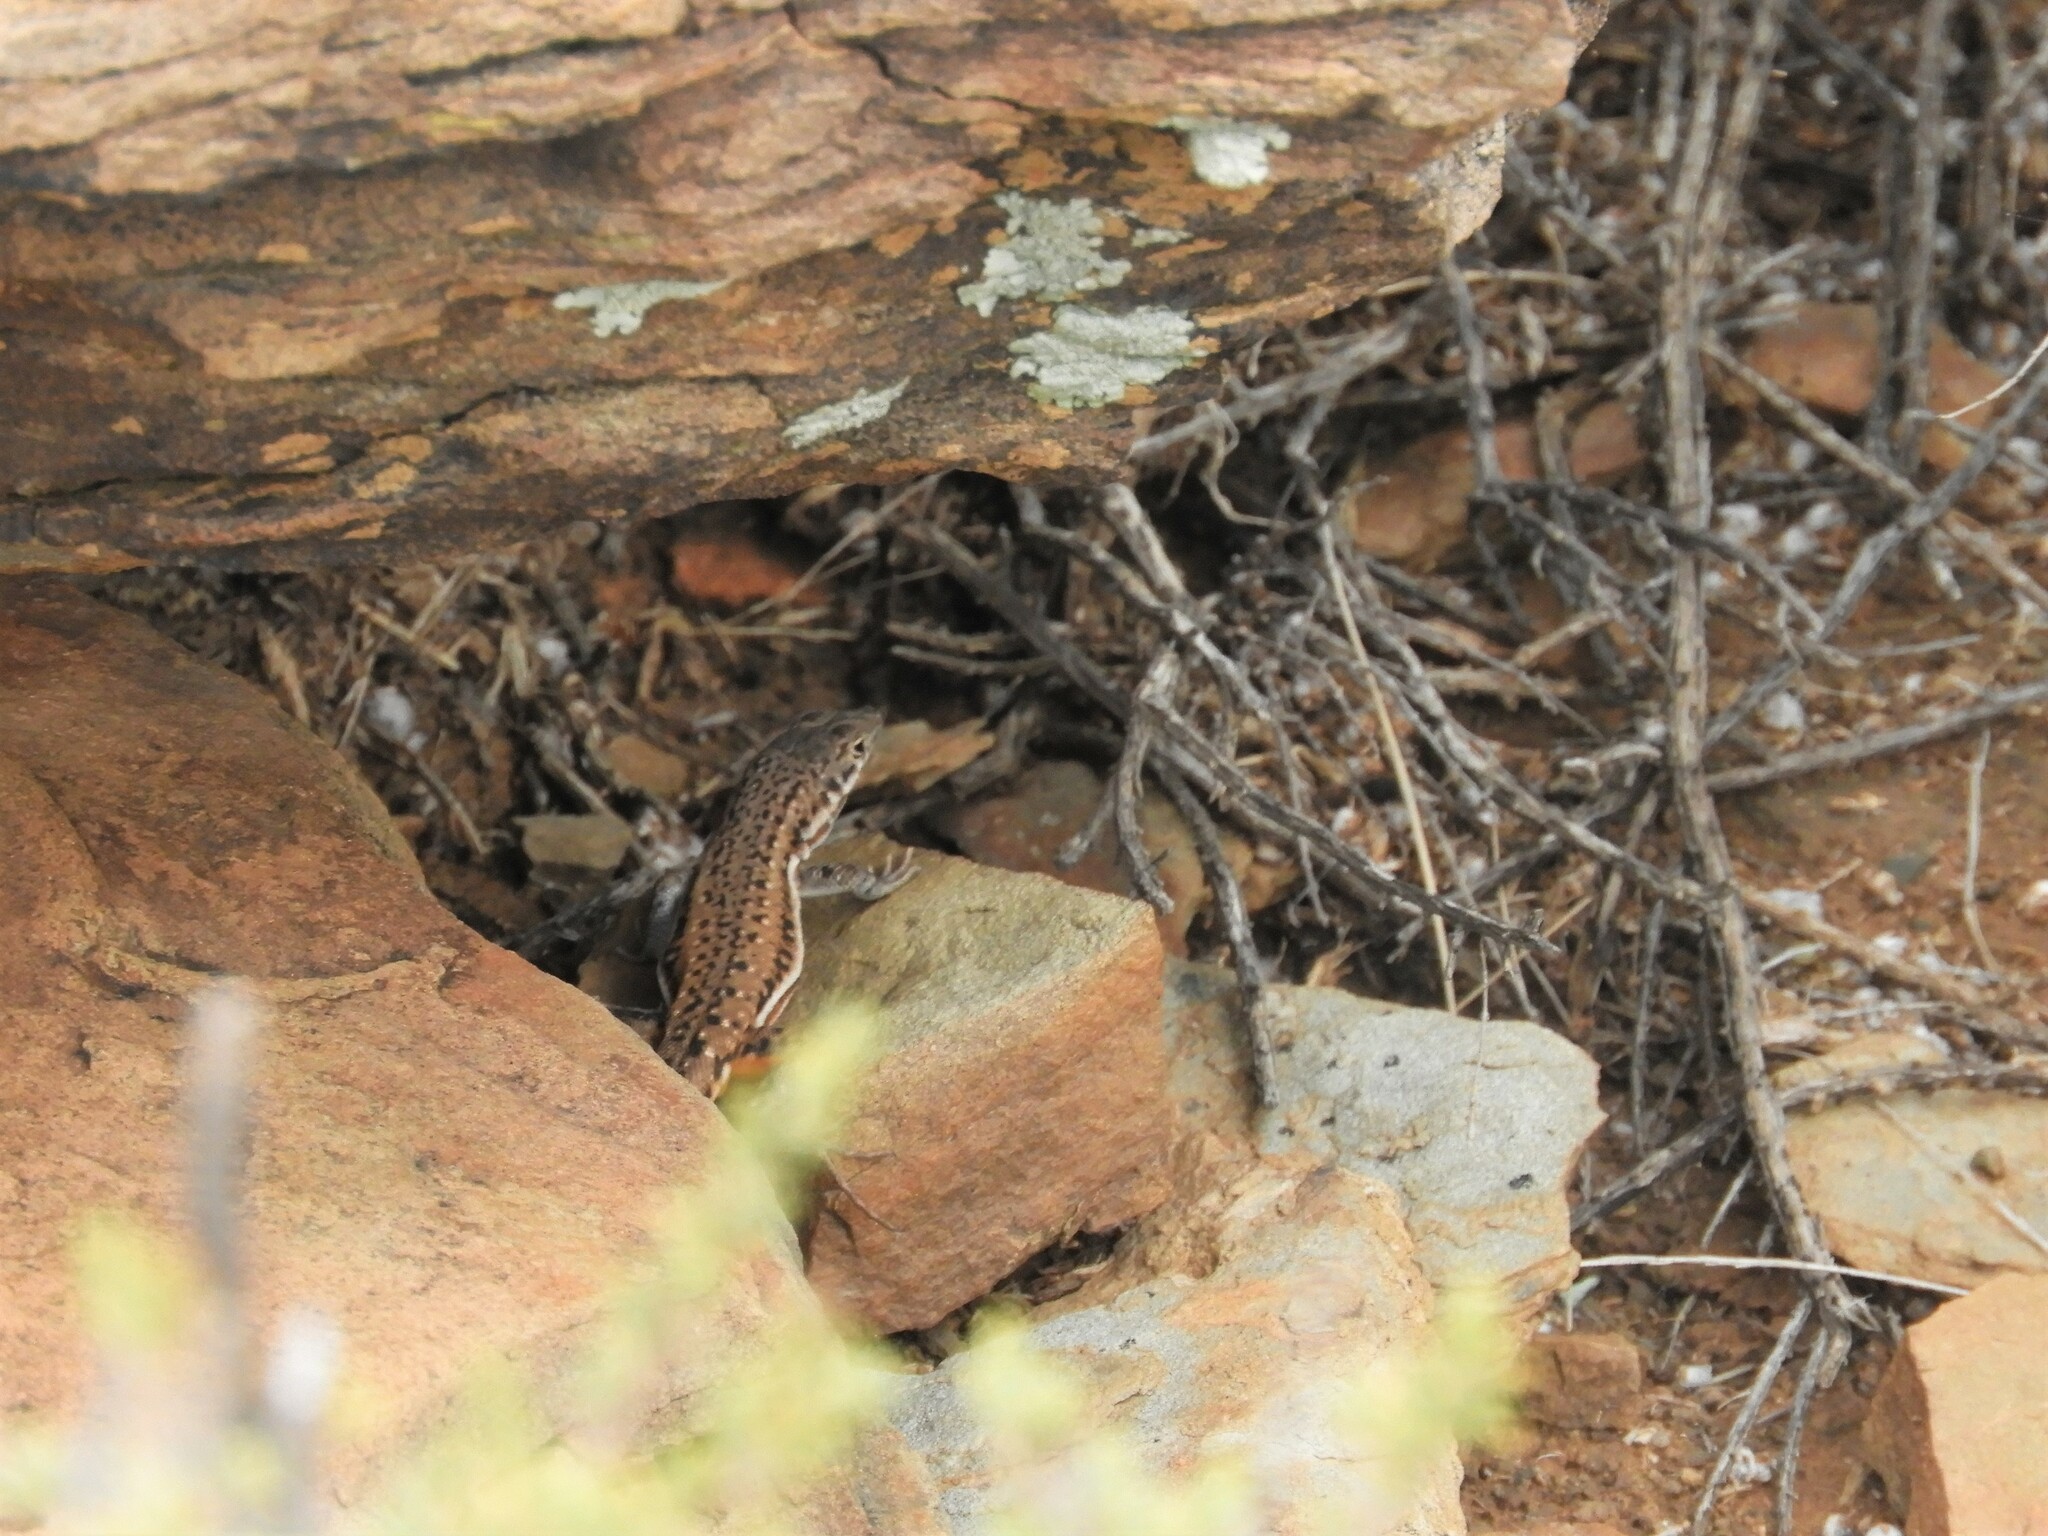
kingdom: Animalia
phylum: Chordata
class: Squamata
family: Lacertidae
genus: Pedioplanis
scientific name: Pedioplanis lineoocellata
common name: Spotted sand lizard
